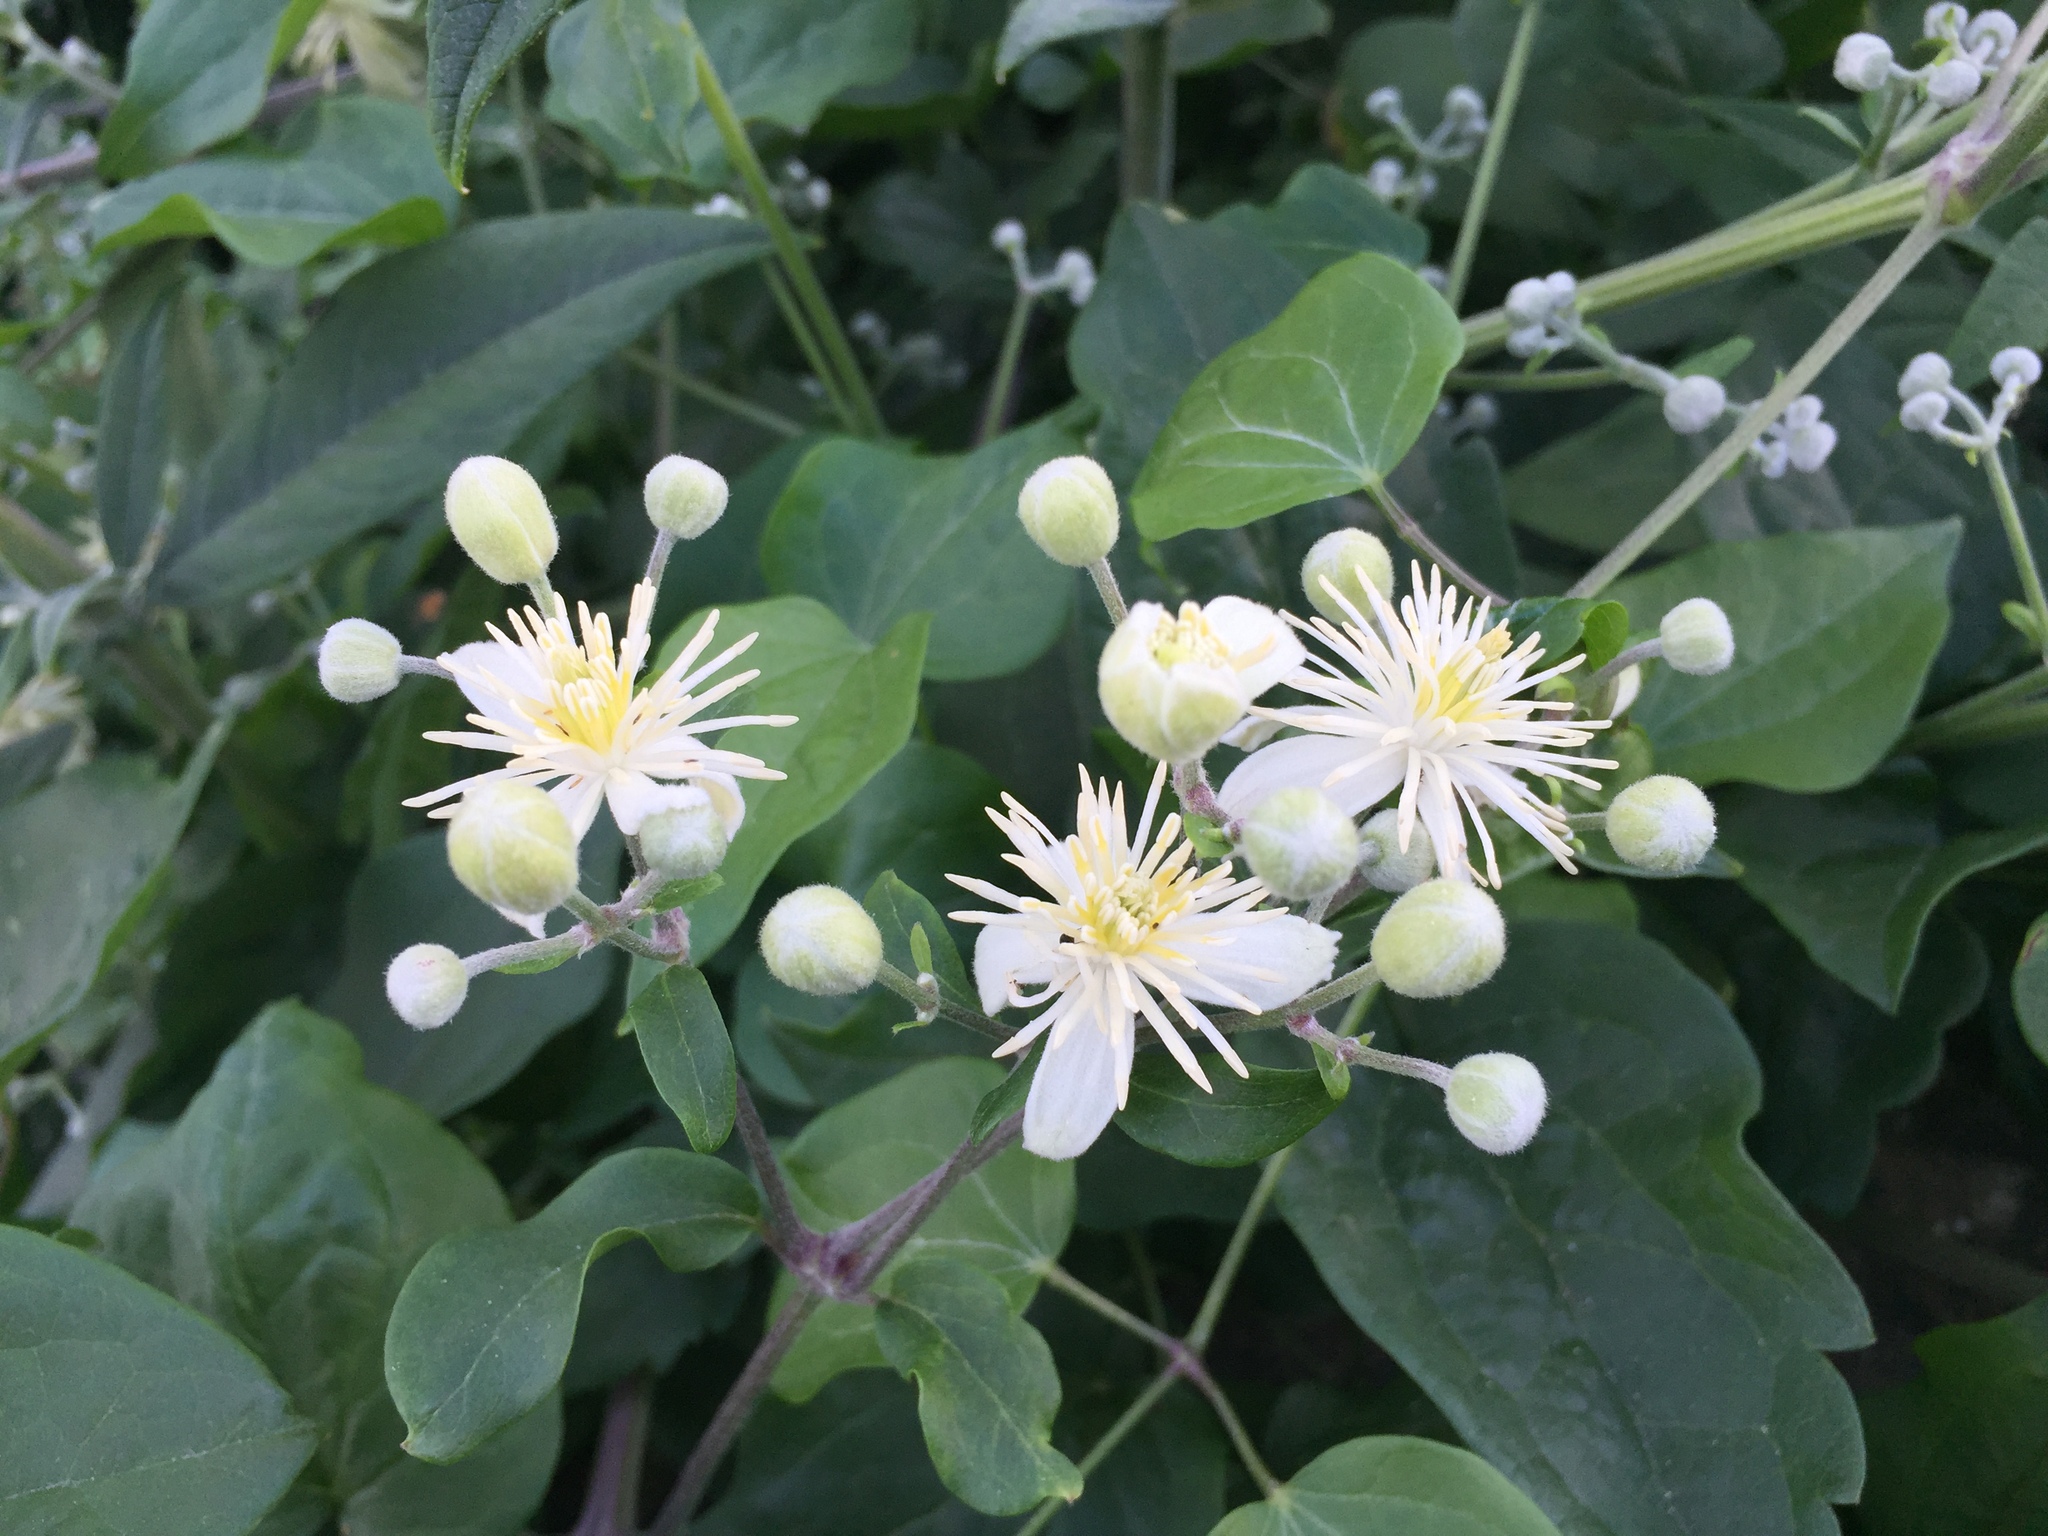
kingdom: Plantae
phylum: Tracheophyta
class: Magnoliopsida
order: Ranunculales
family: Ranunculaceae
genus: Clematis
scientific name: Clematis vitalba
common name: Evergreen clematis
